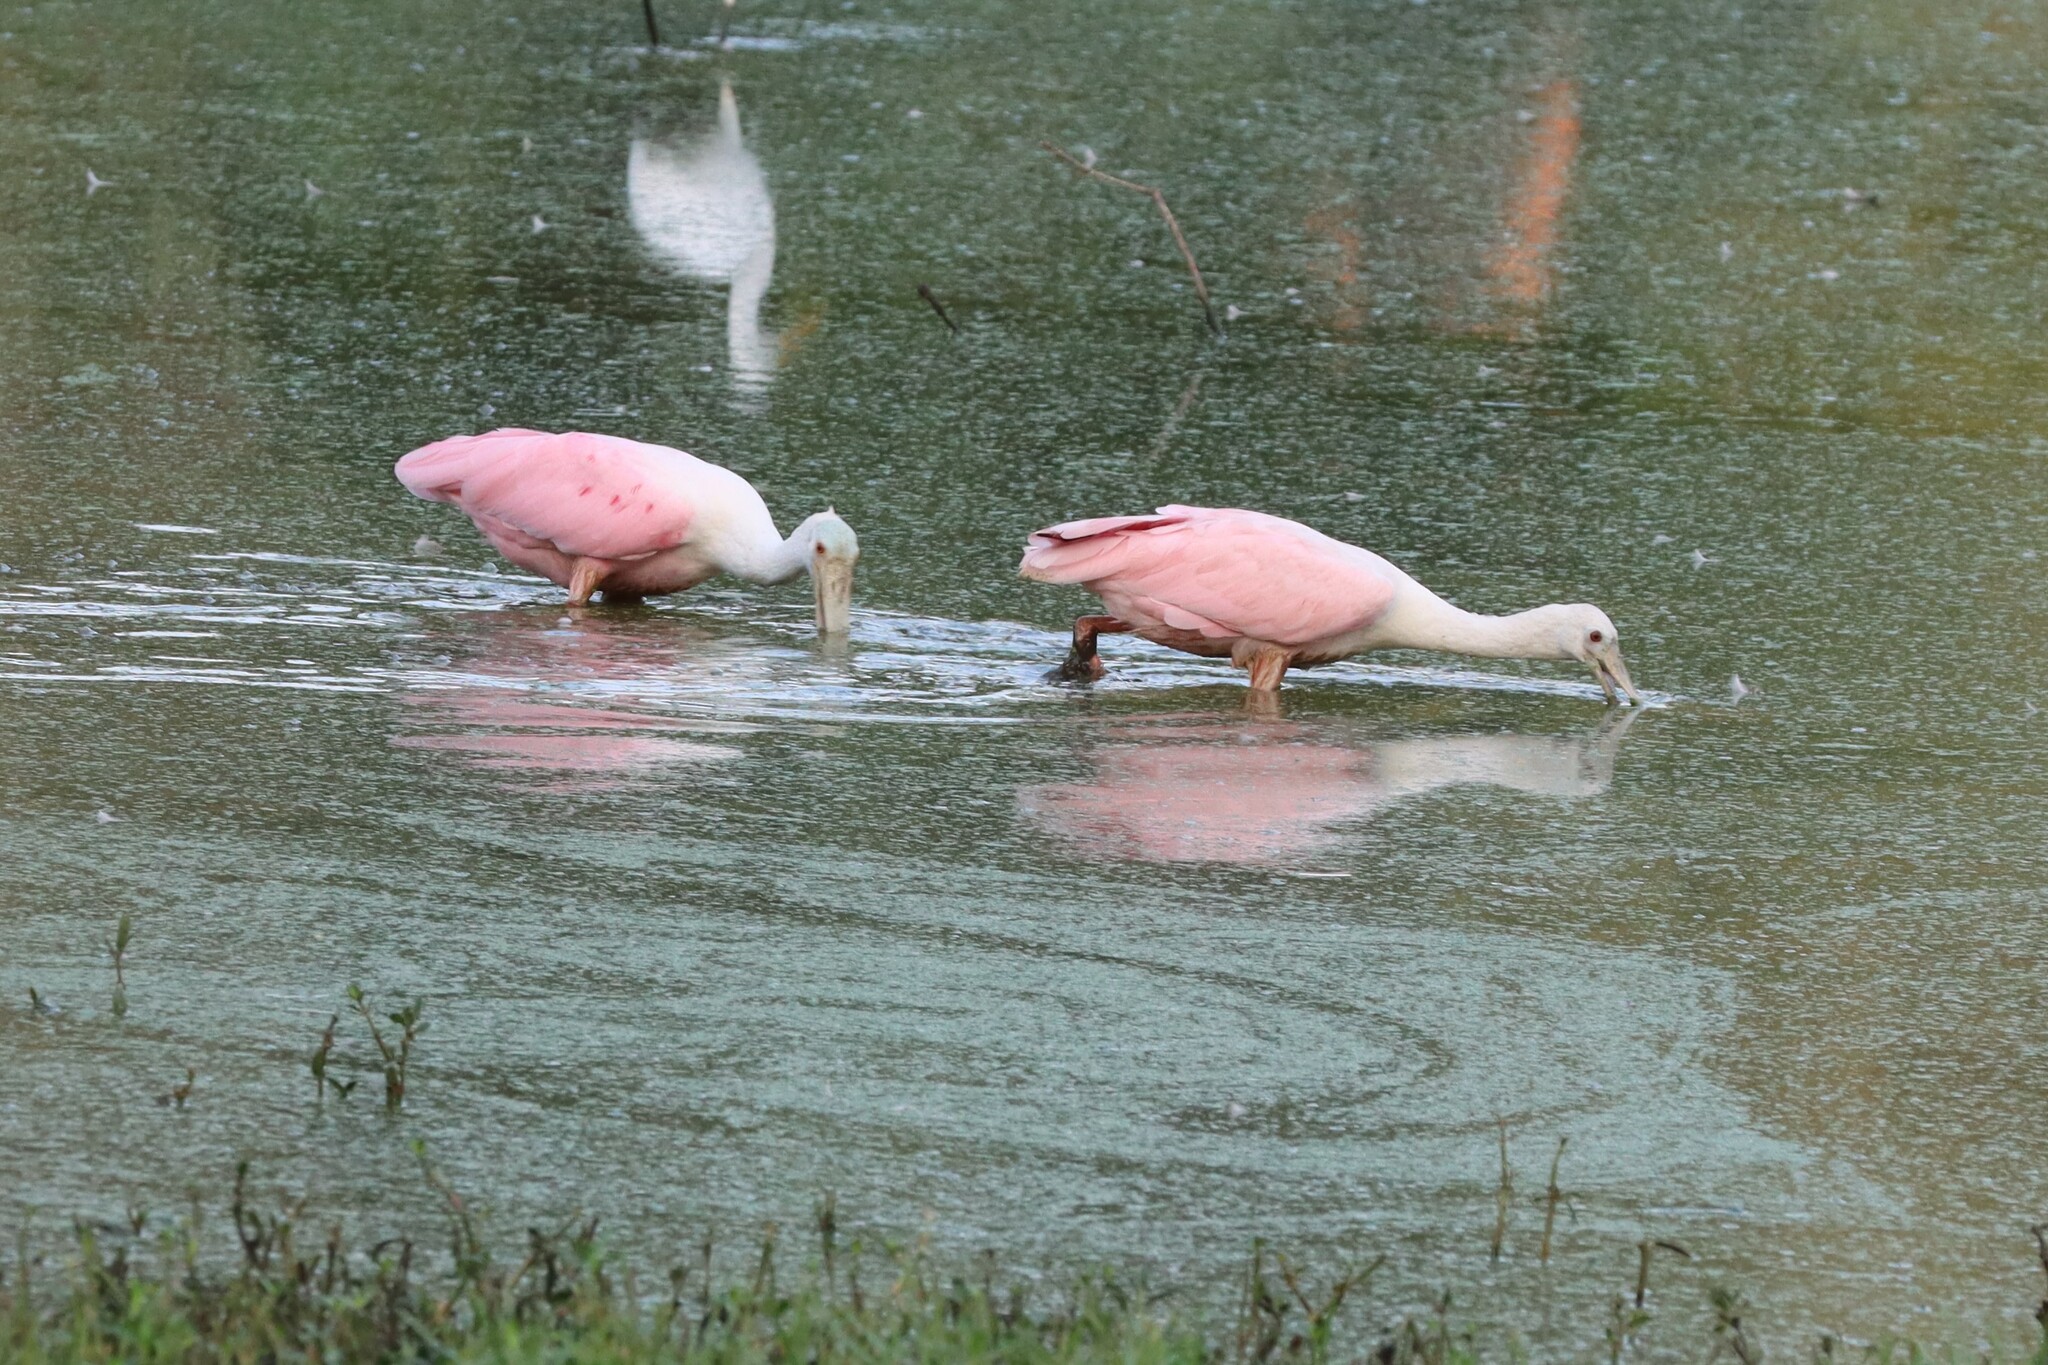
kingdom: Animalia
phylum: Chordata
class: Aves
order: Pelecaniformes
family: Threskiornithidae
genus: Platalea
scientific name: Platalea ajaja
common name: Roseate spoonbill
